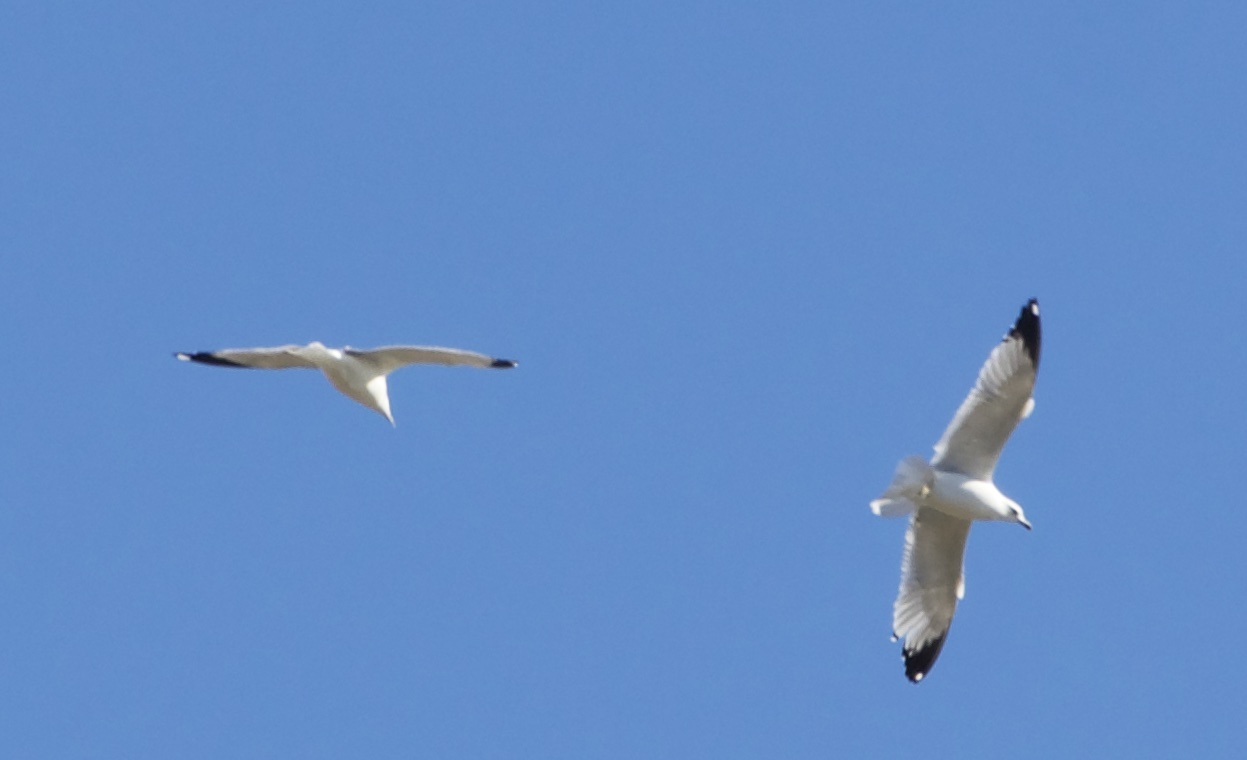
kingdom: Animalia
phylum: Chordata
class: Aves
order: Charadriiformes
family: Laridae
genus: Larus
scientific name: Larus delawarensis
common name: Ring-billed gull
